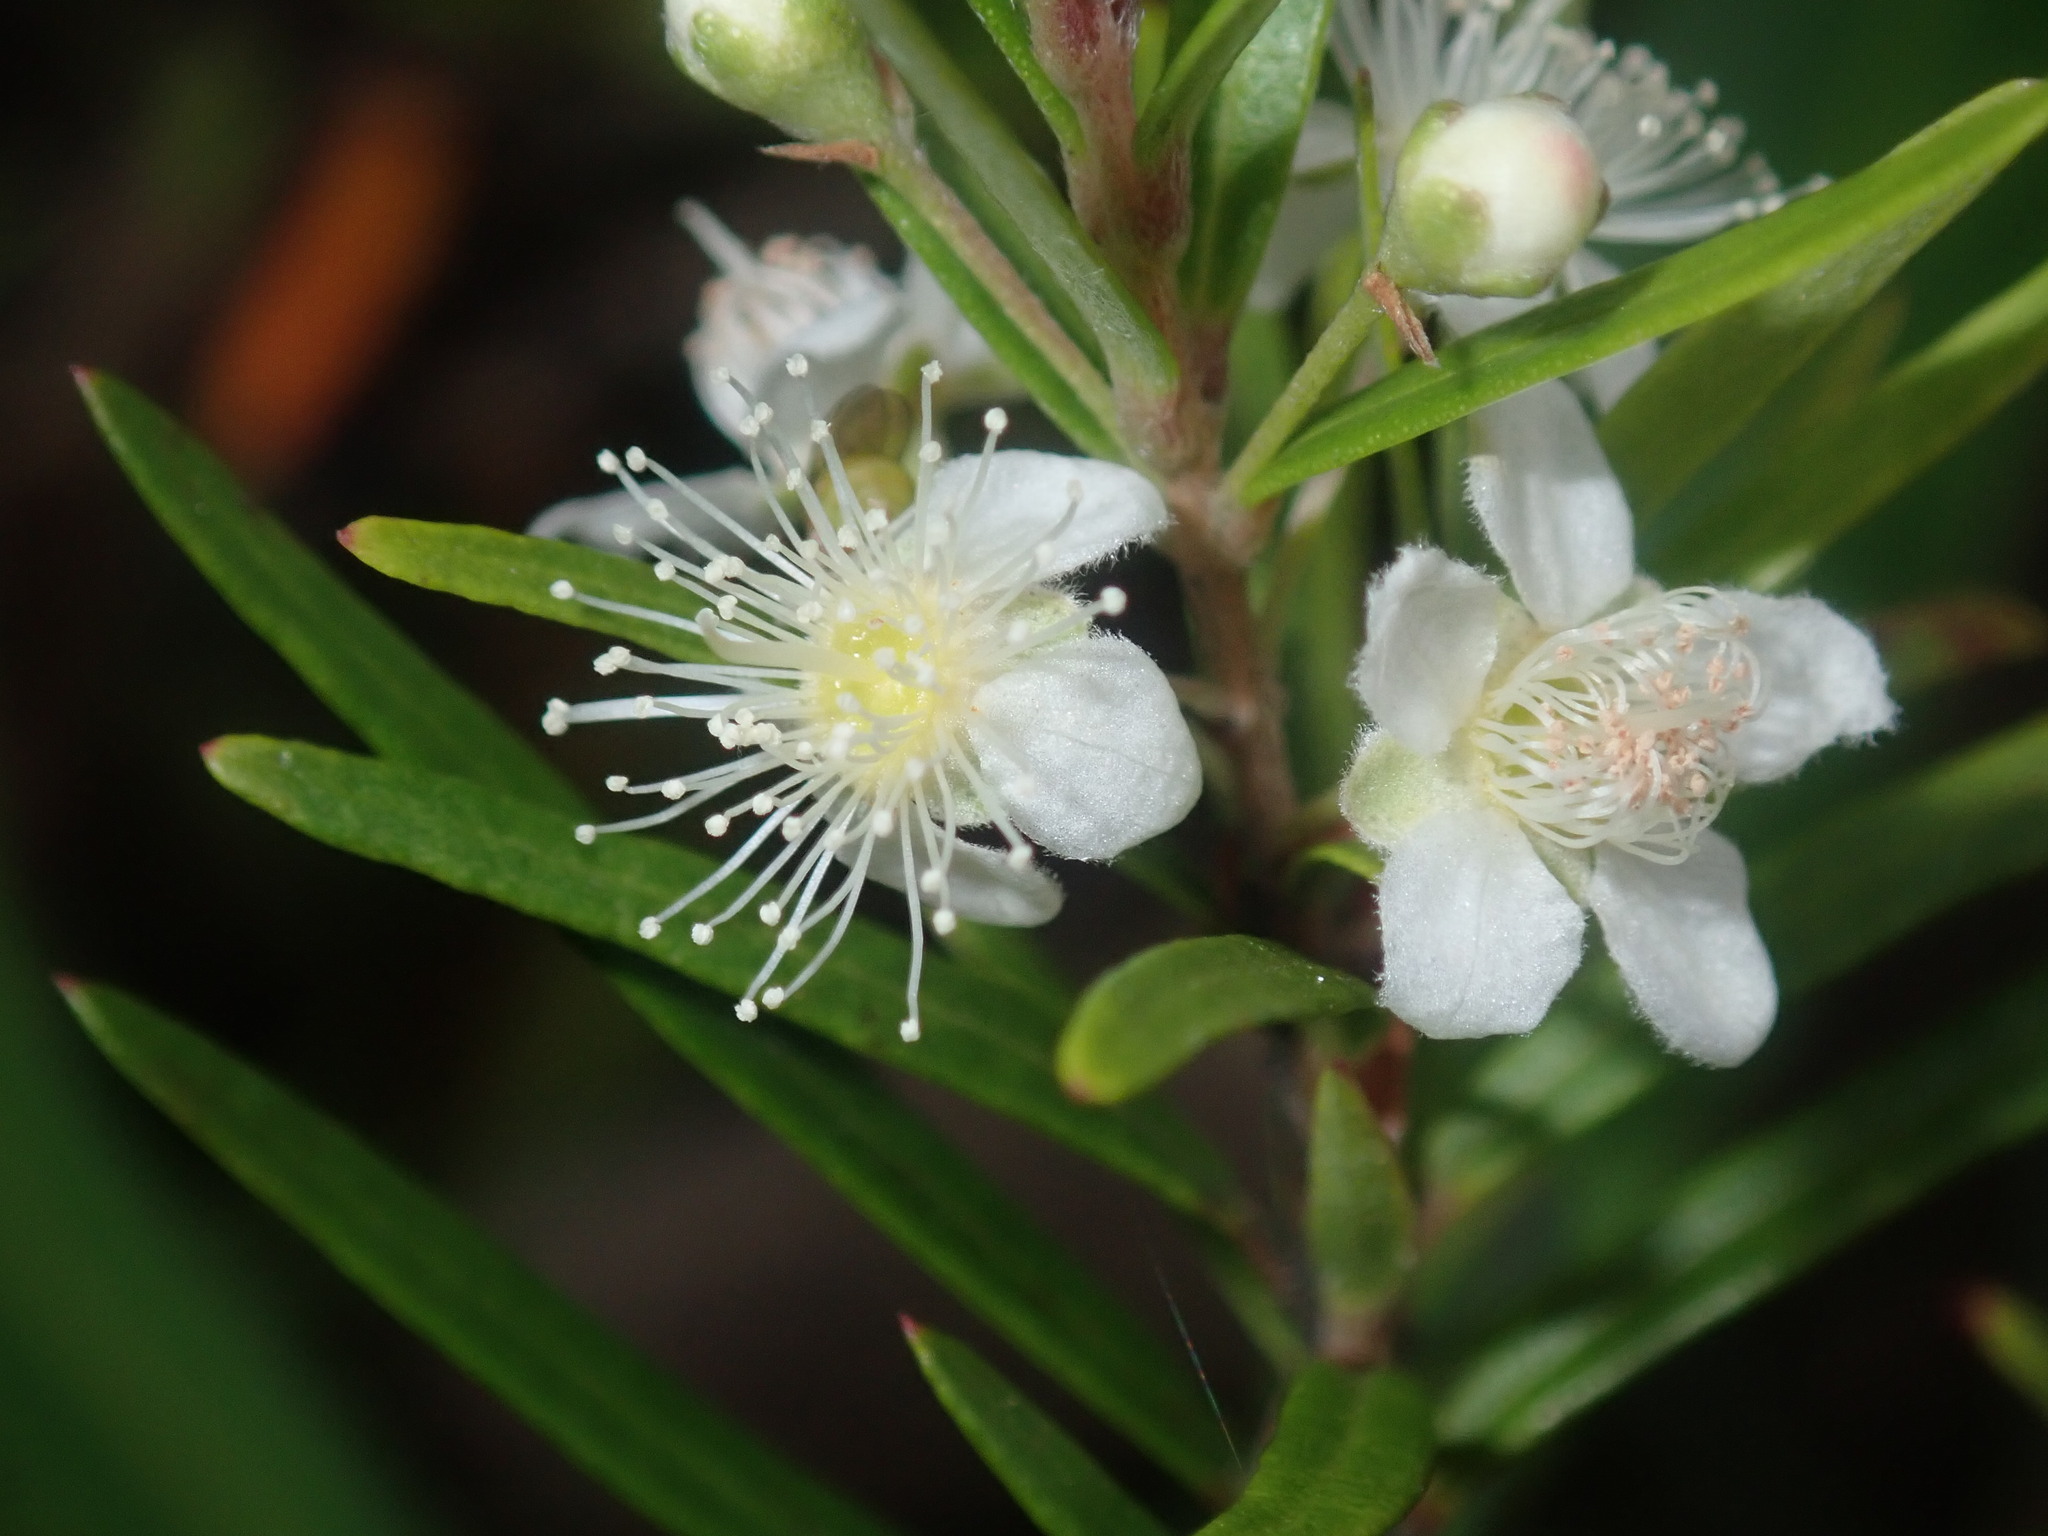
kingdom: Plantae
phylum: Tracheophyta
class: Magnoliopsida
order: Myrtales
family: Myrtaceae
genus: Austromyrtus
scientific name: Austromyrtus tenuifolia
